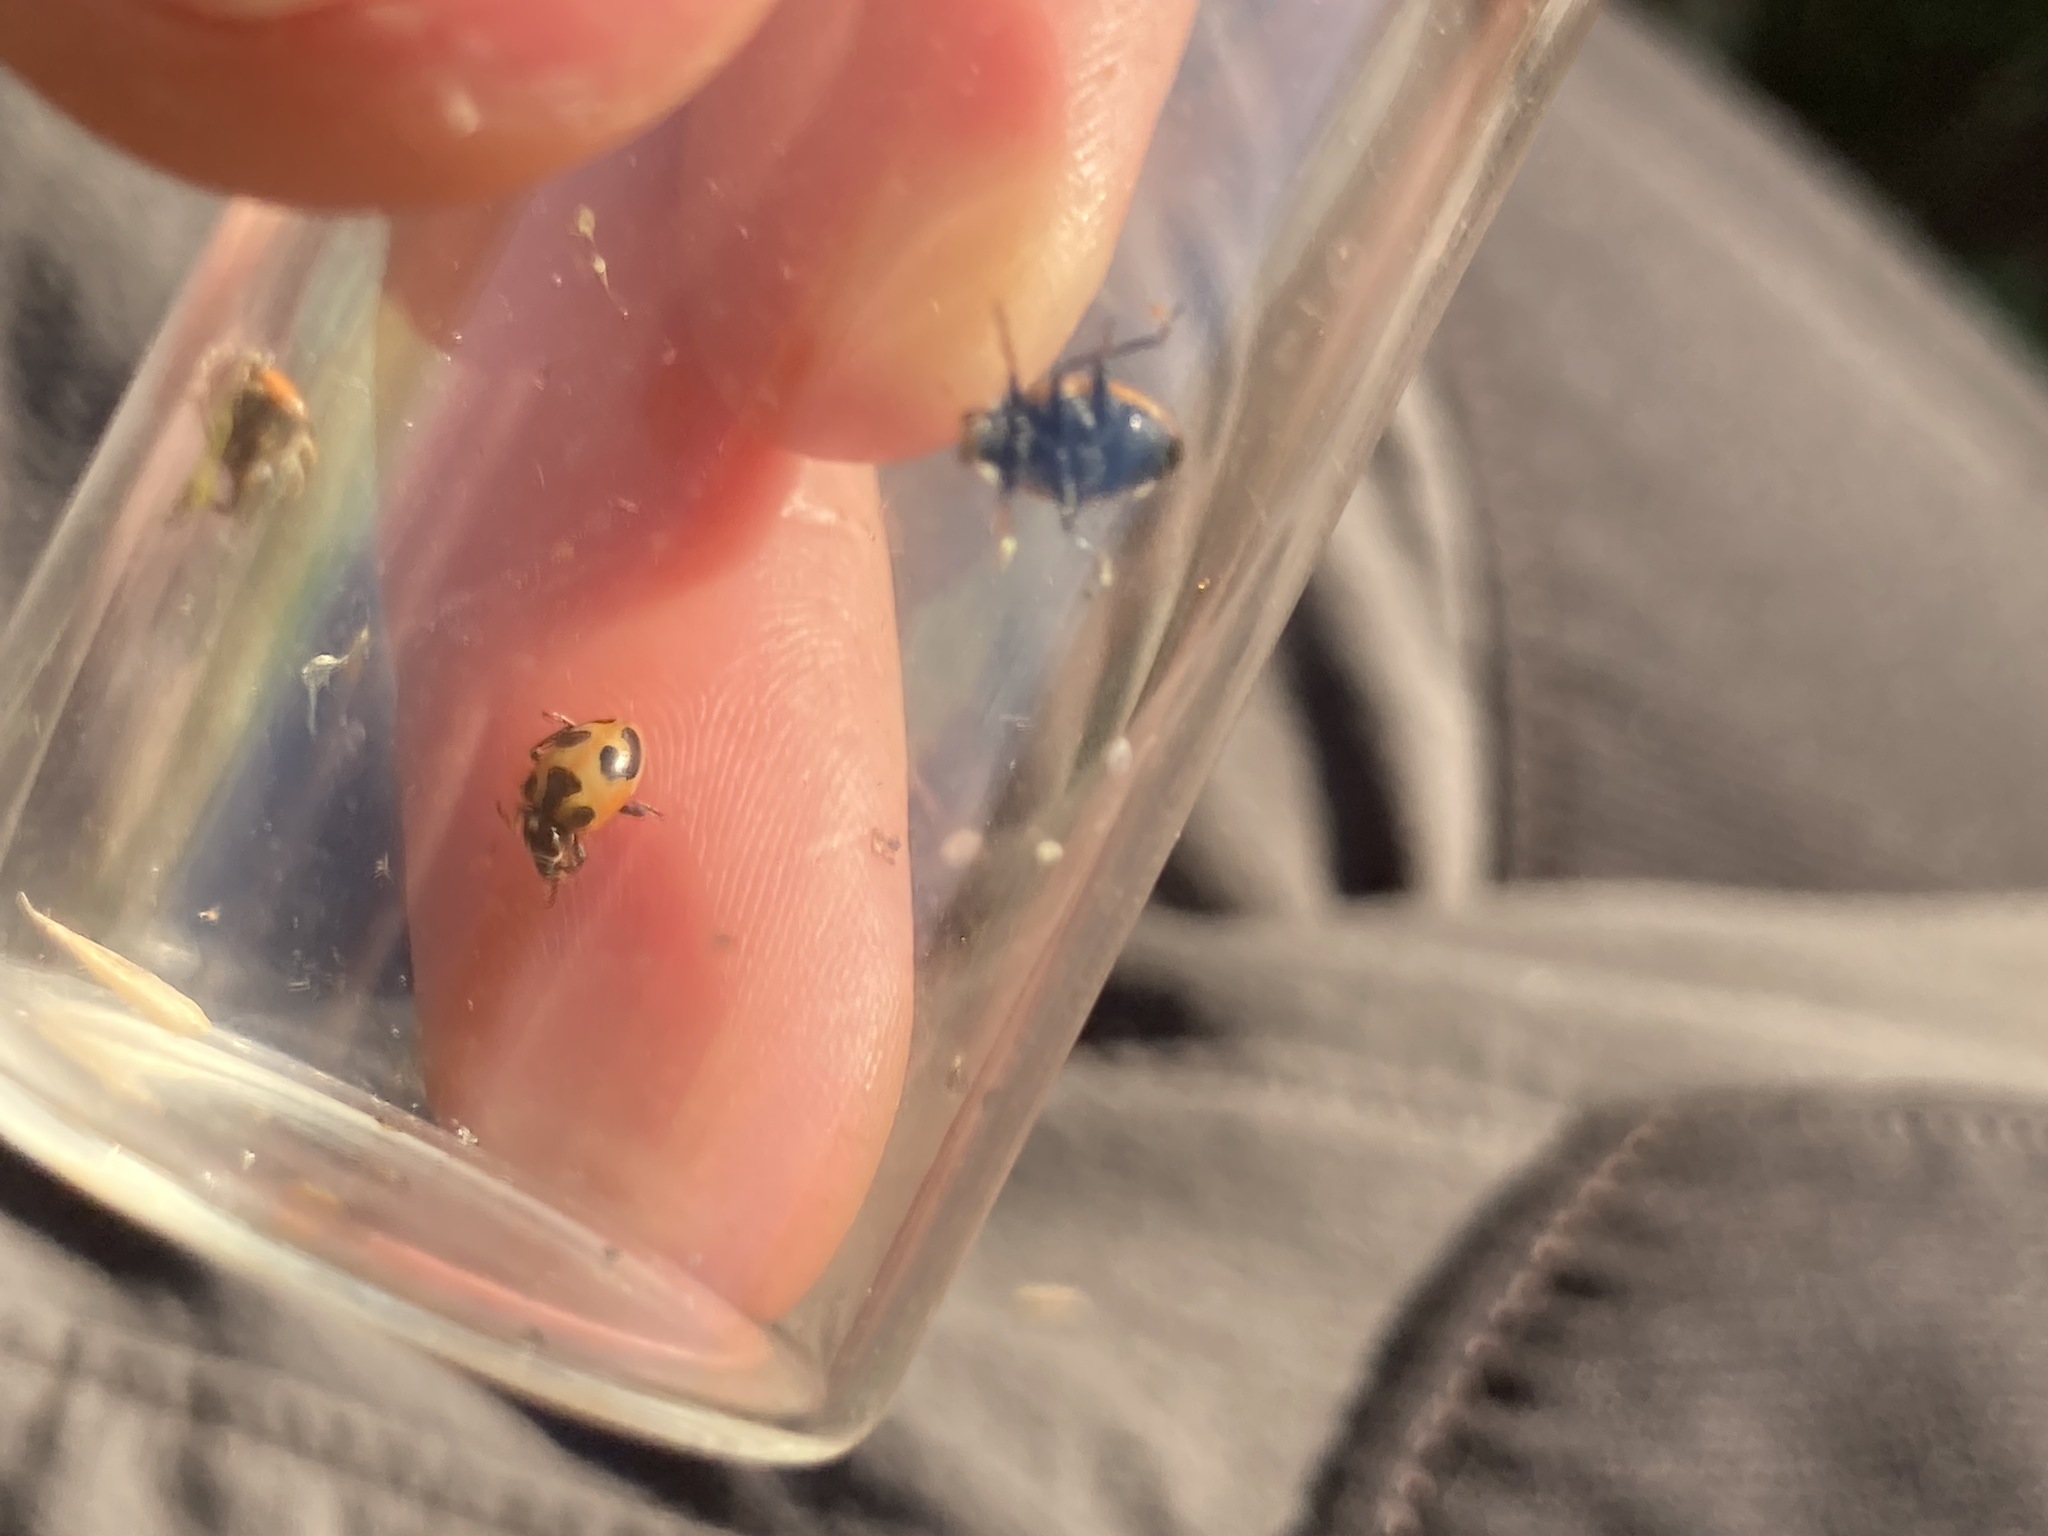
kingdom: Animalia
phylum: Arthropoda
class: Insecta
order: Coleoptera
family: Coccinellidae
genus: Hippodamia
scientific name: Hippodamia parenthesis
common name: Parenthesis lady beetle
